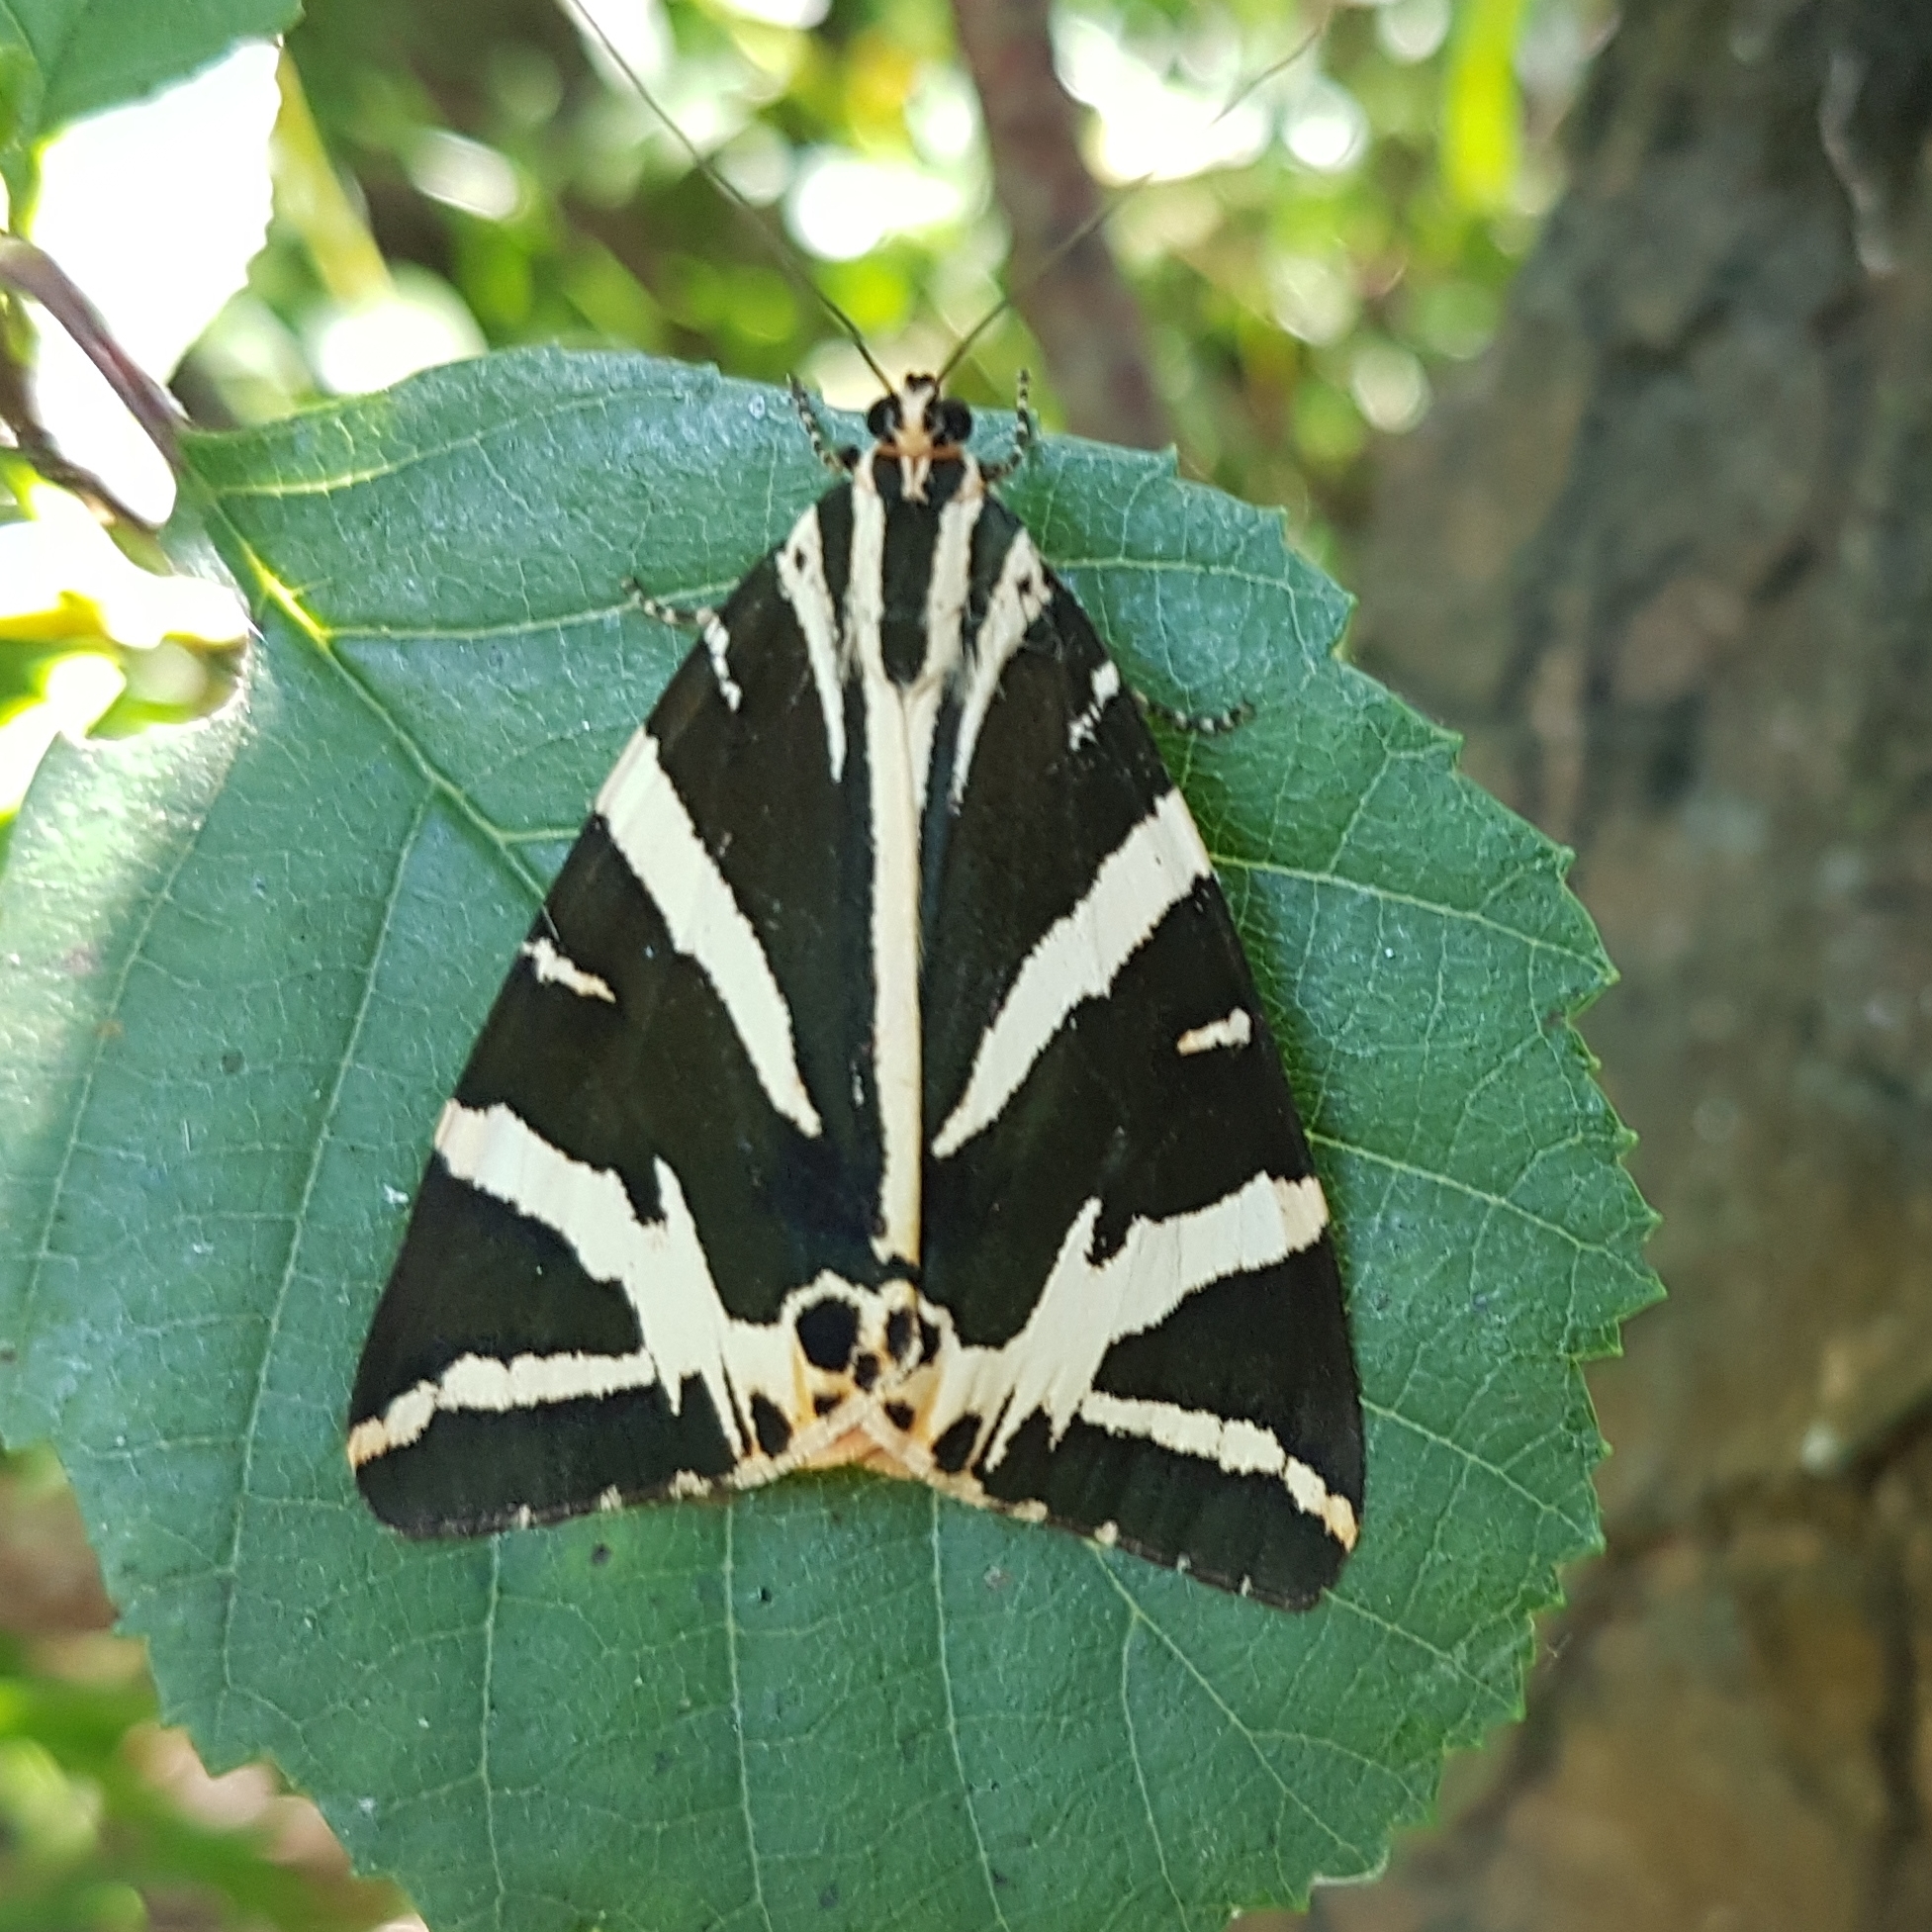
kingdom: Animalia
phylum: Arthropoda
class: Insecta
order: Lepidoptera
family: Erebidae
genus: Euplagia
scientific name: Euplagia quadripunctaria
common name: Jersey tiger
